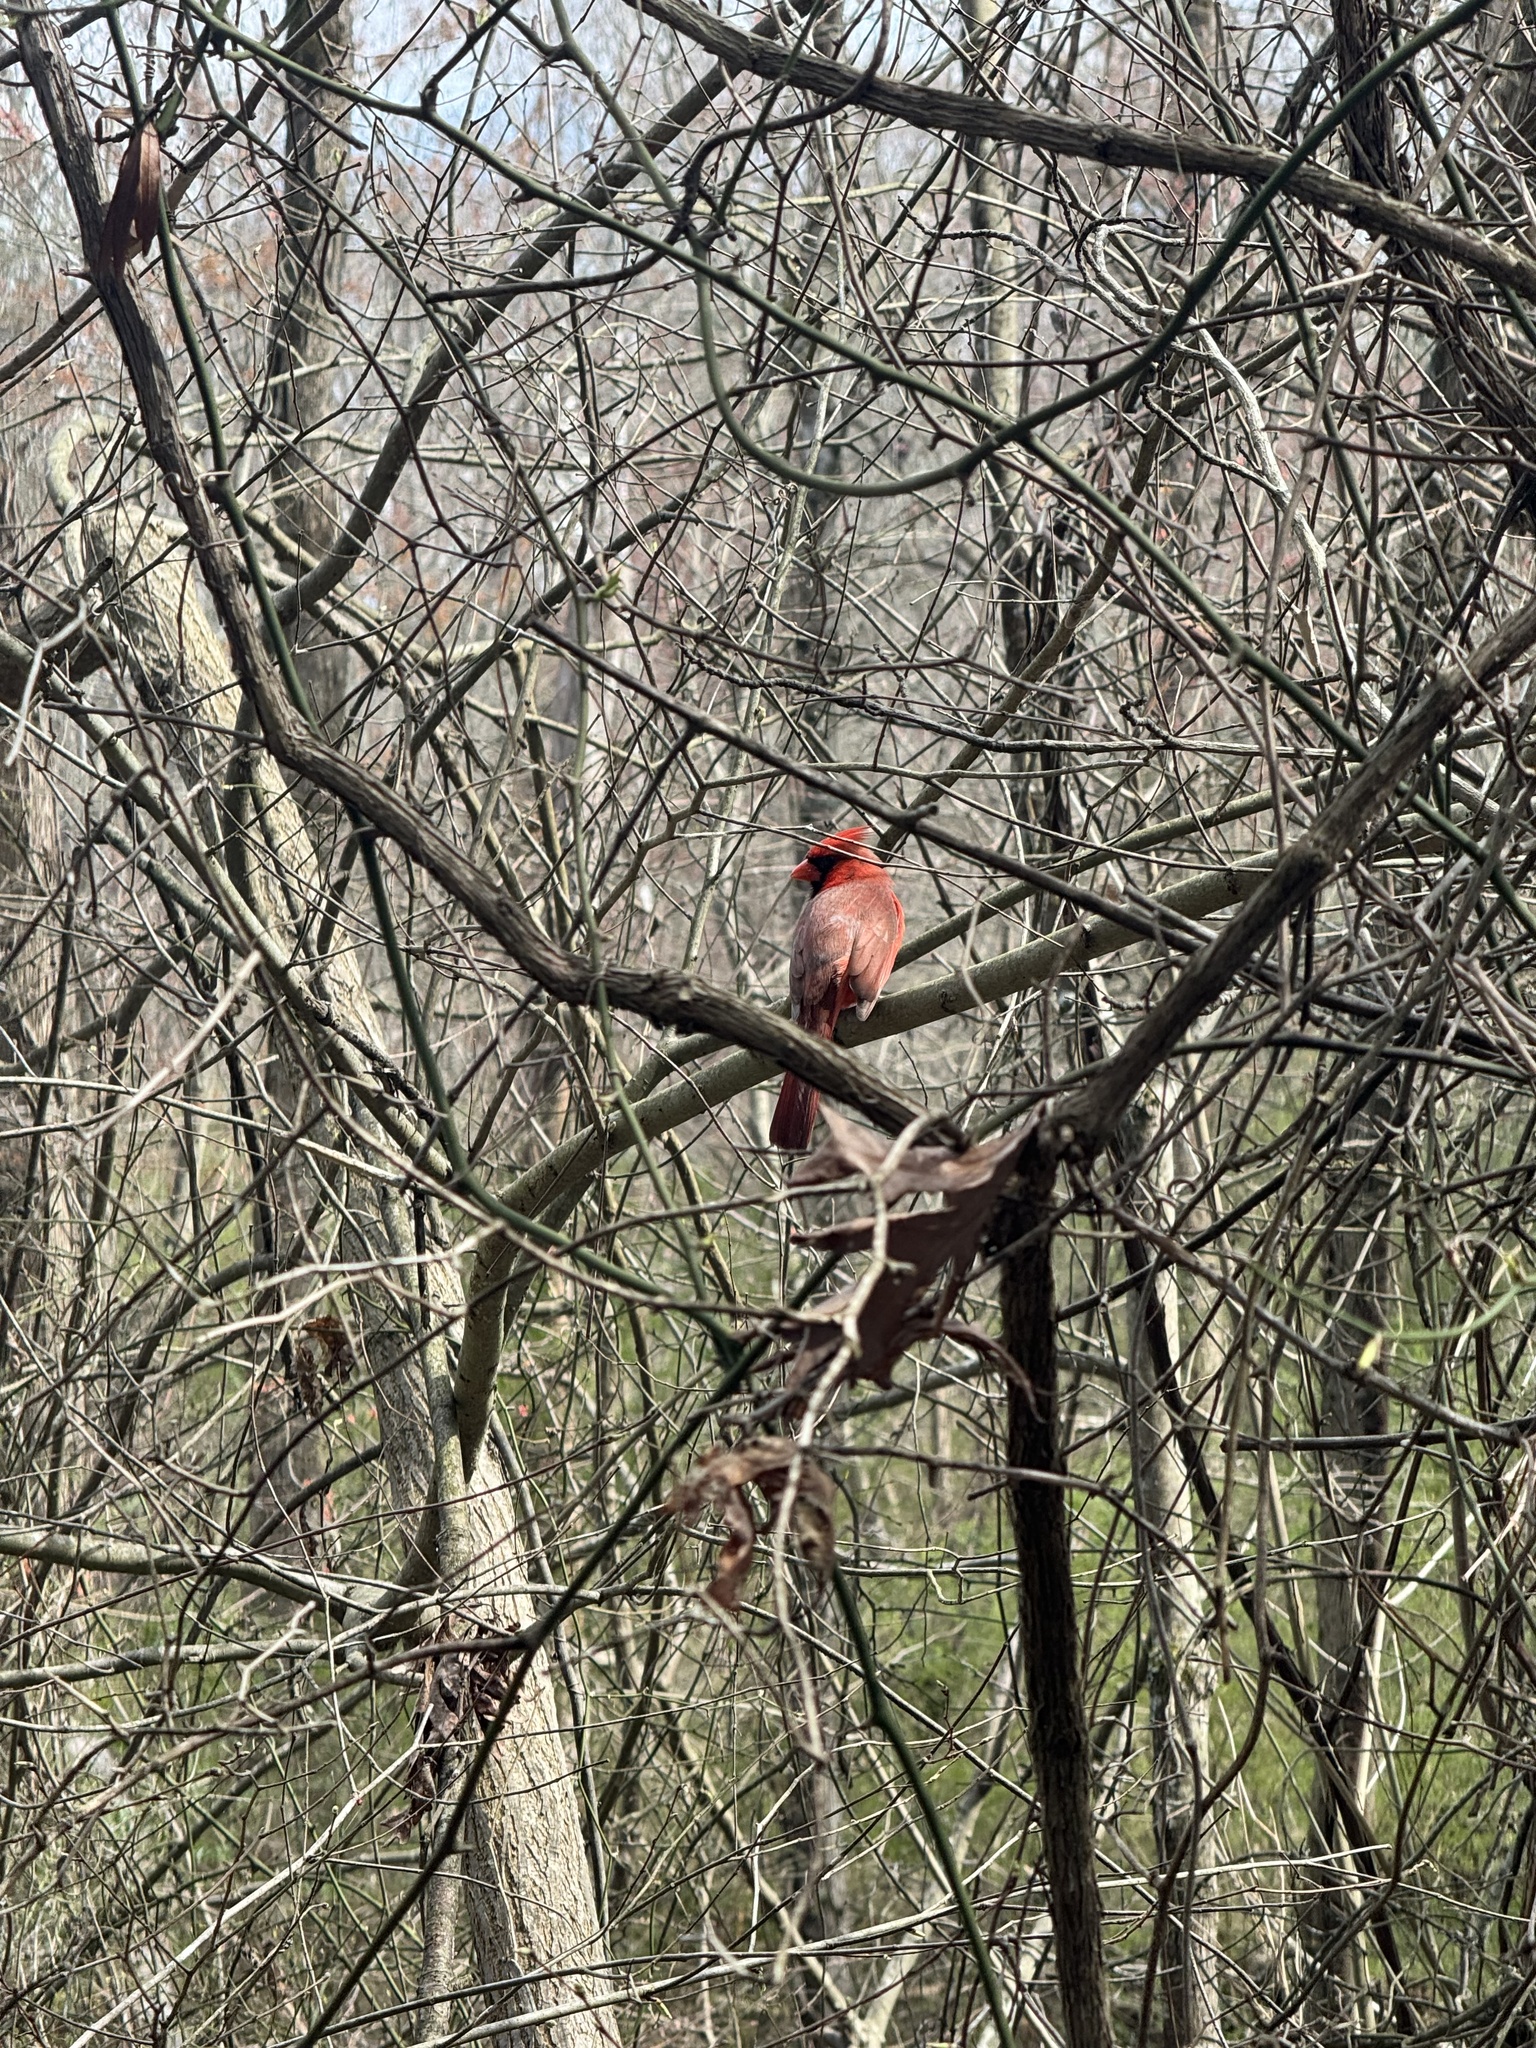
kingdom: Animalia
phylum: Chordata
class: Aves
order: Passeriformes
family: Cardinalidae
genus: Cardinalis
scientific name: Cardinalis cardinalis
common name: Northern cardinal
